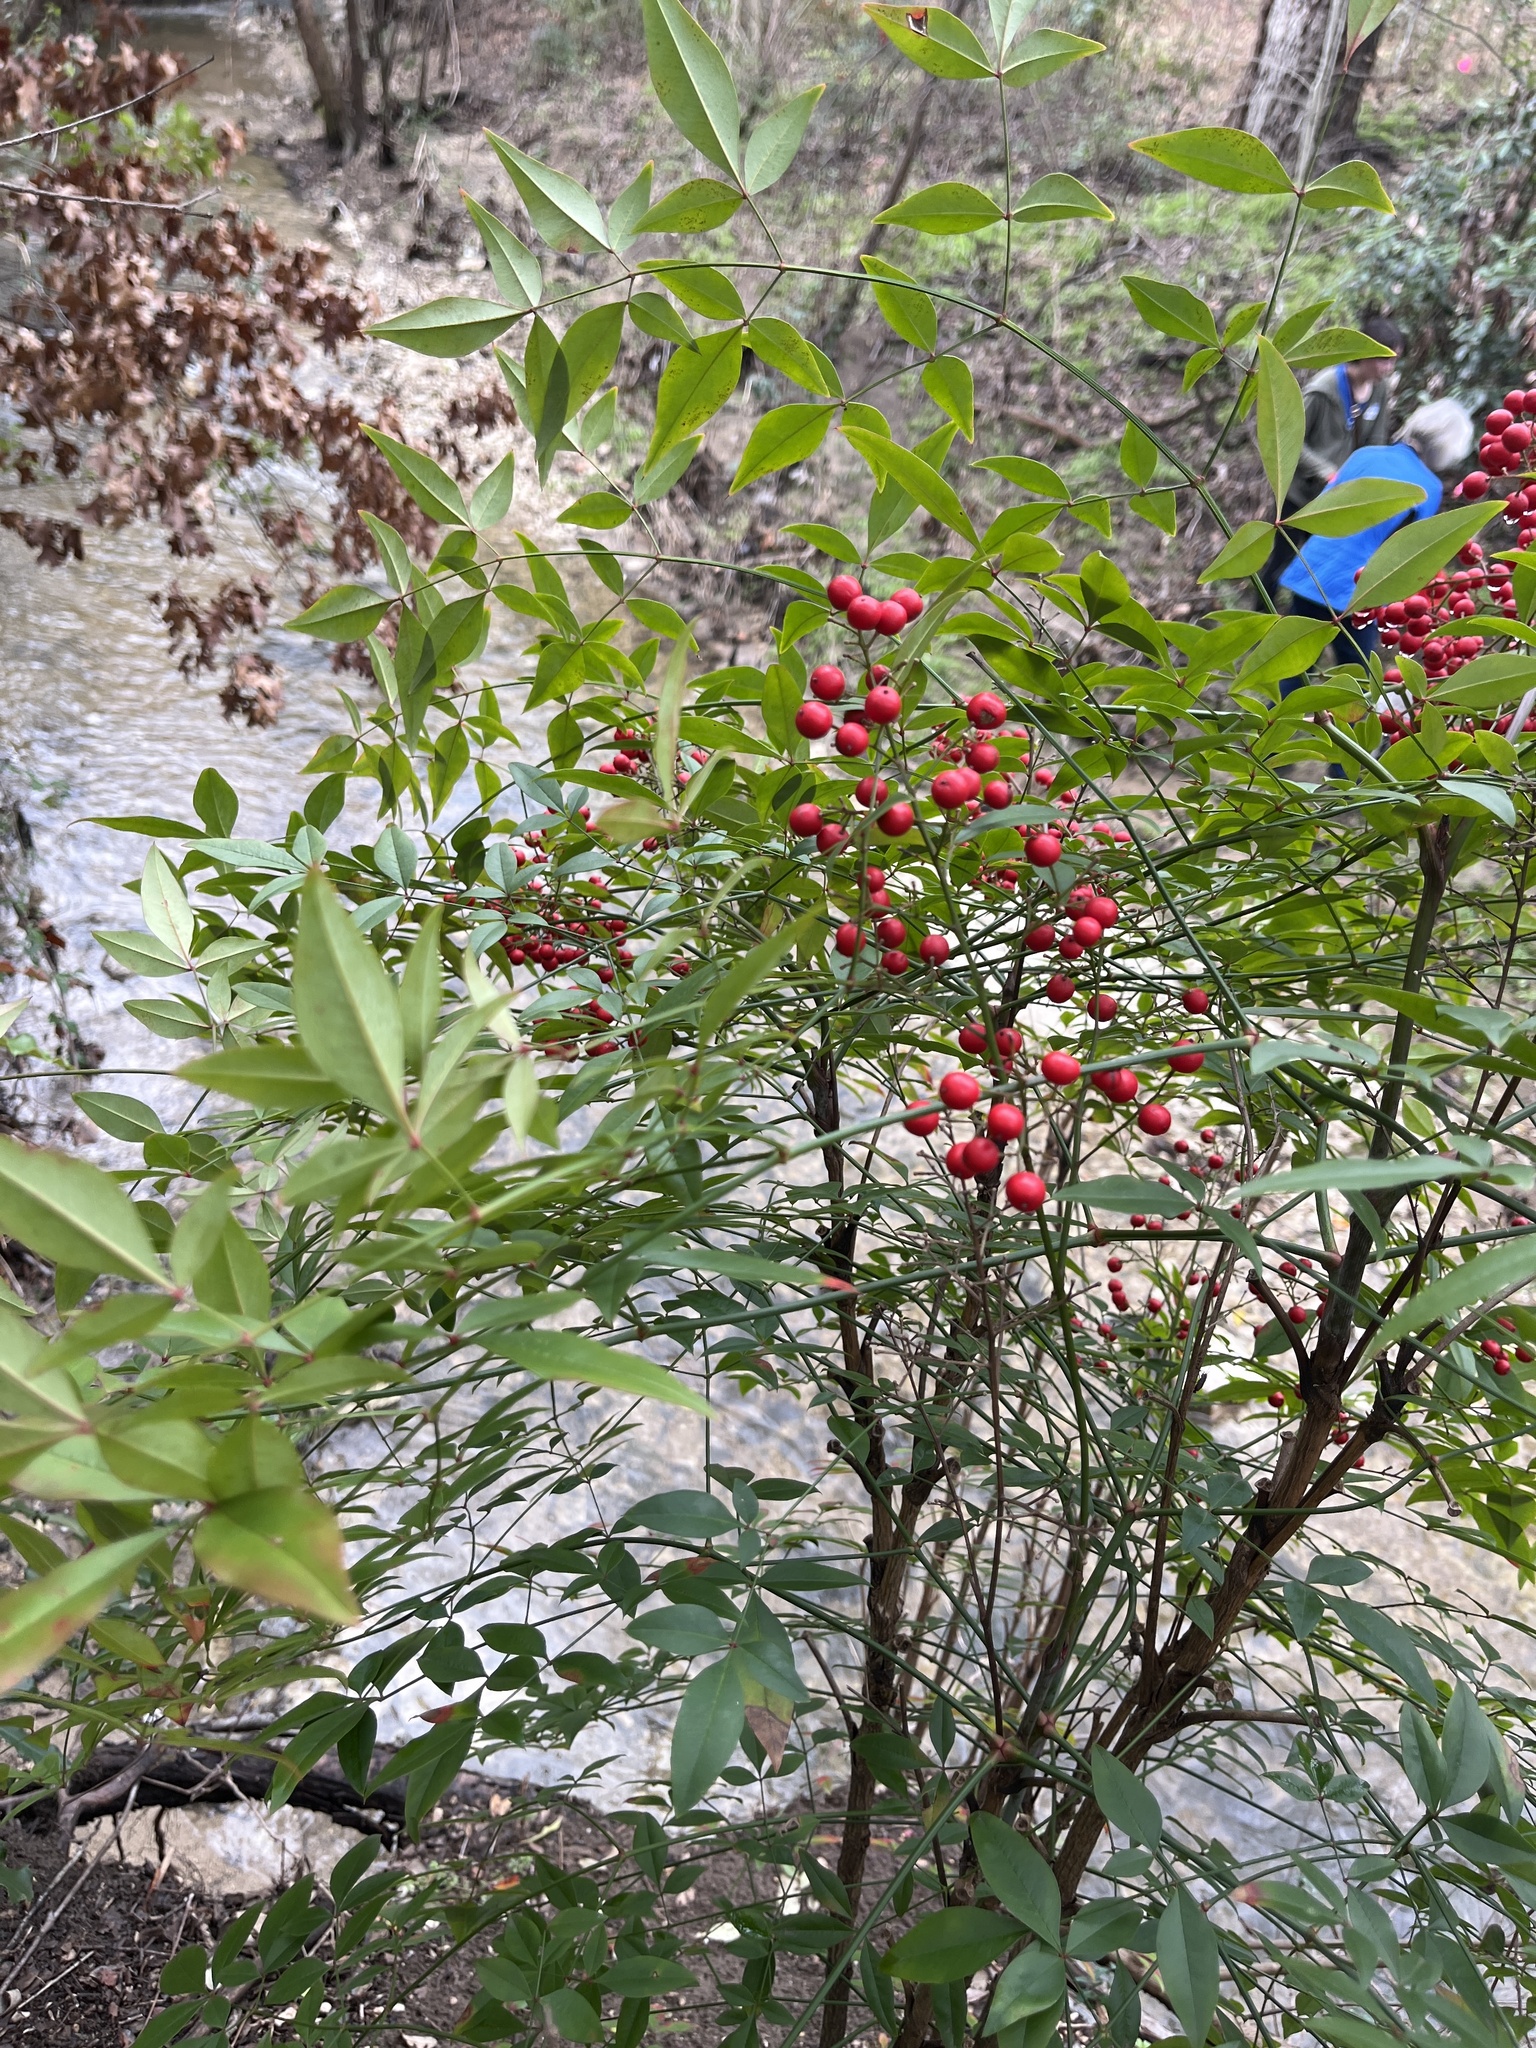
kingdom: Plantae
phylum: Tracheophyta
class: Magnoliopsida
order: Ranunculales
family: Berberidaceae
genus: Nandina
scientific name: Nandina domestica
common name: Sacred bamboo
